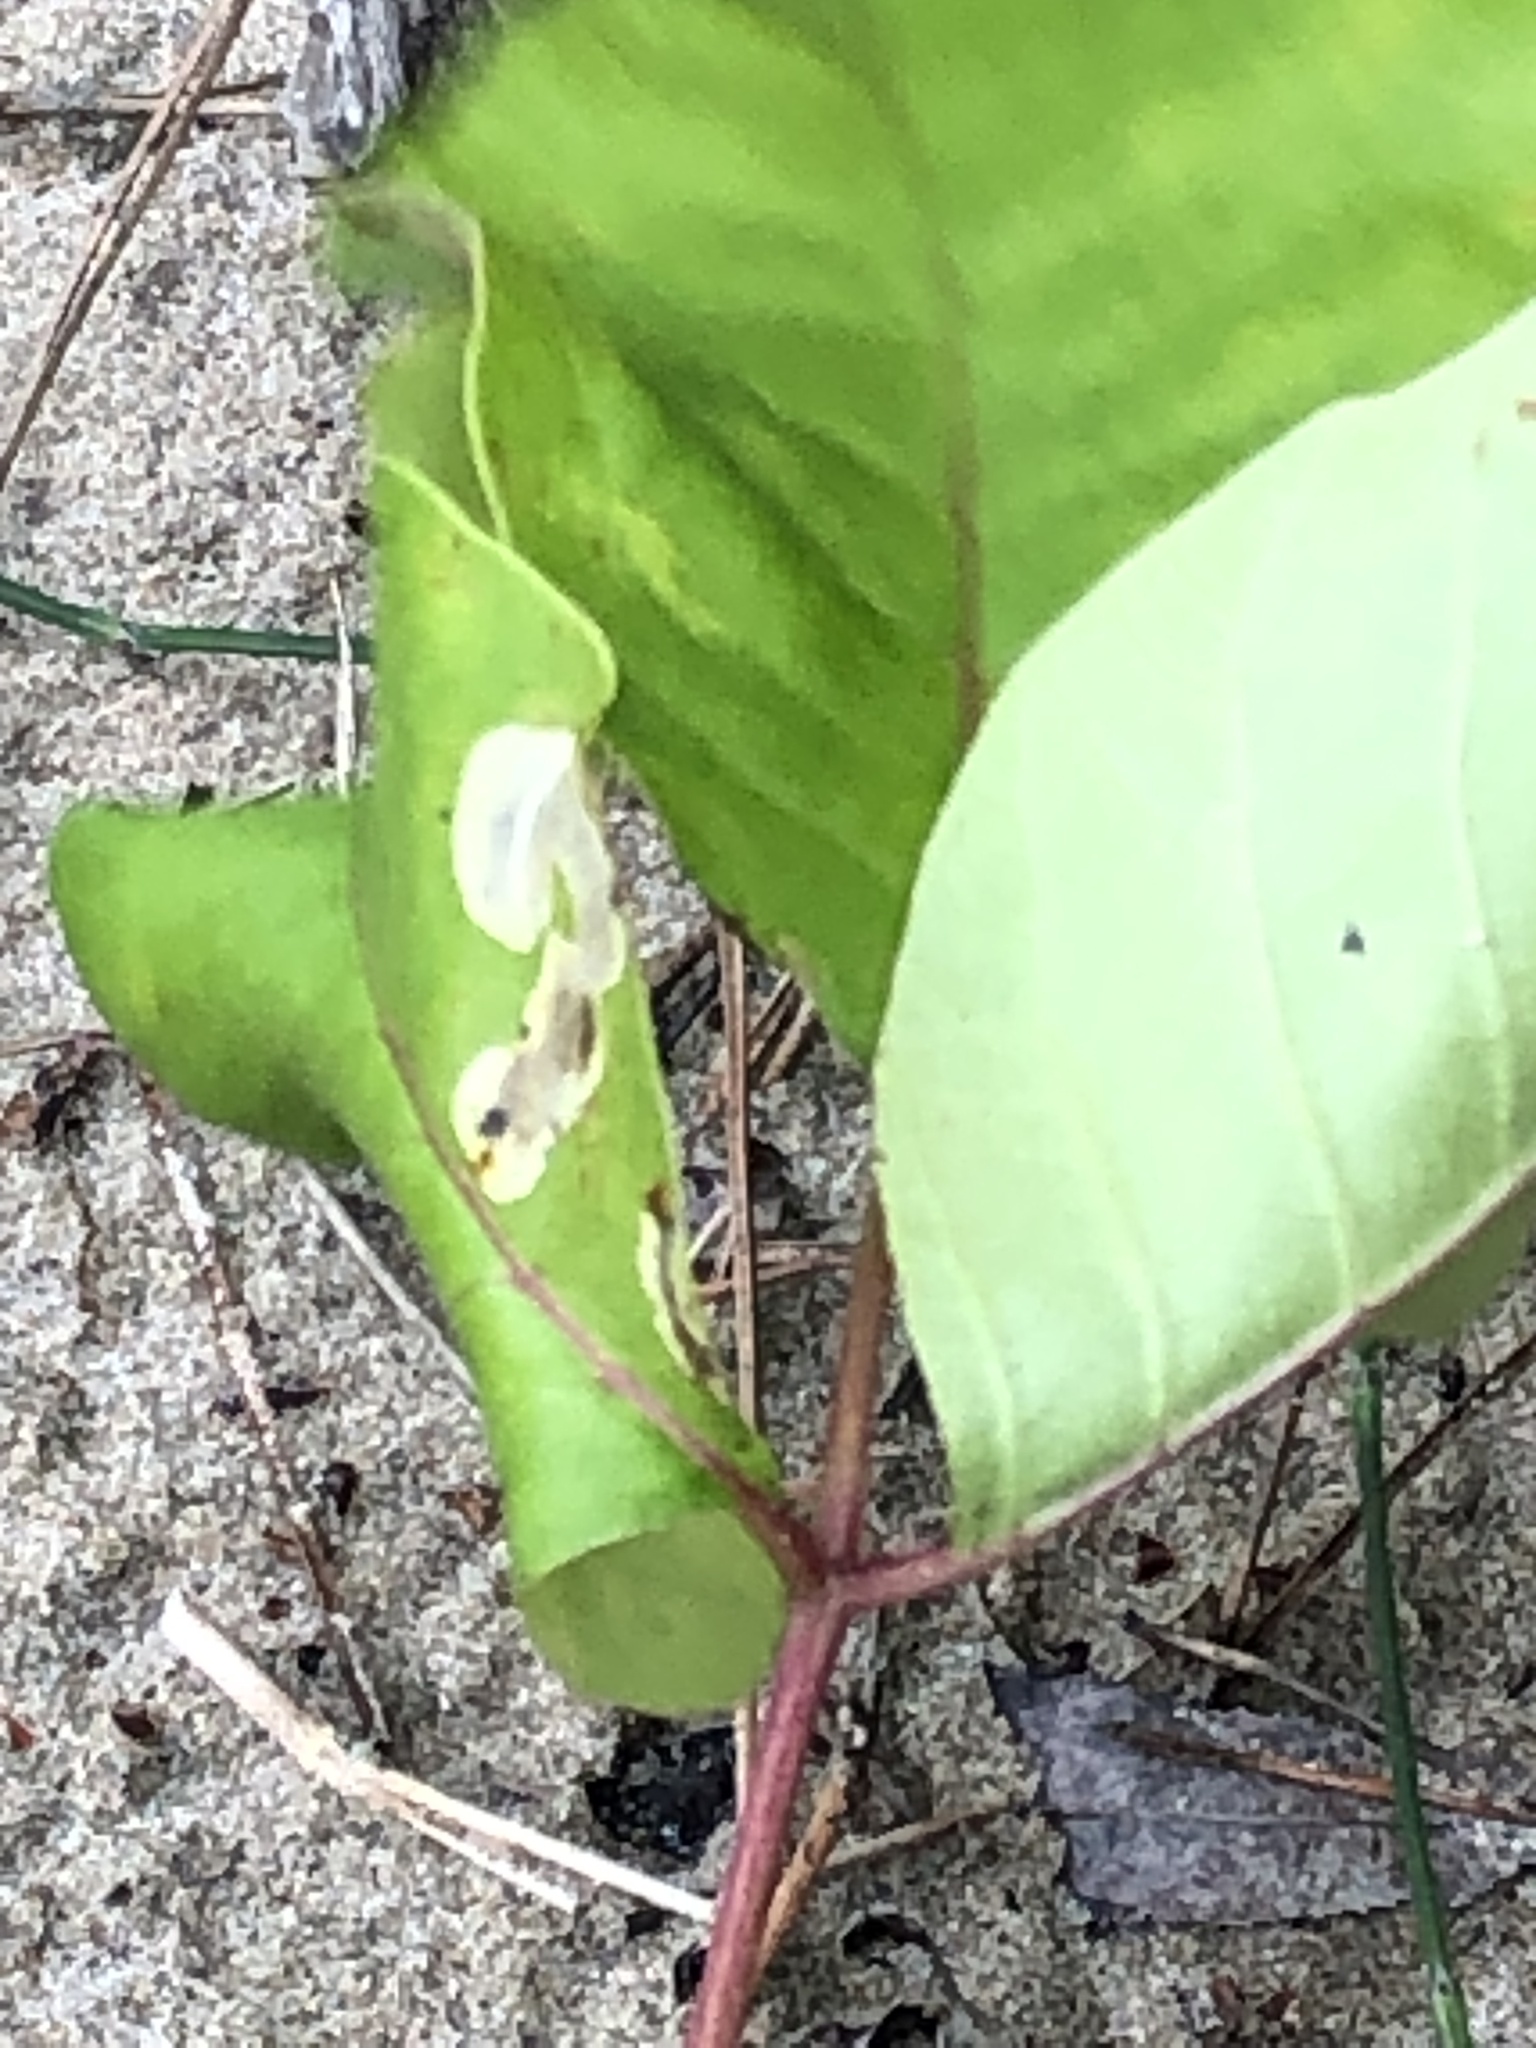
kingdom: Animalia
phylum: Arthropoda
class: Insecta
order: Lepidoptera
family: Gracillariidae
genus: Cameraria
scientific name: Cameraria guttifinitella
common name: Poison ivy leaf-miner moth
